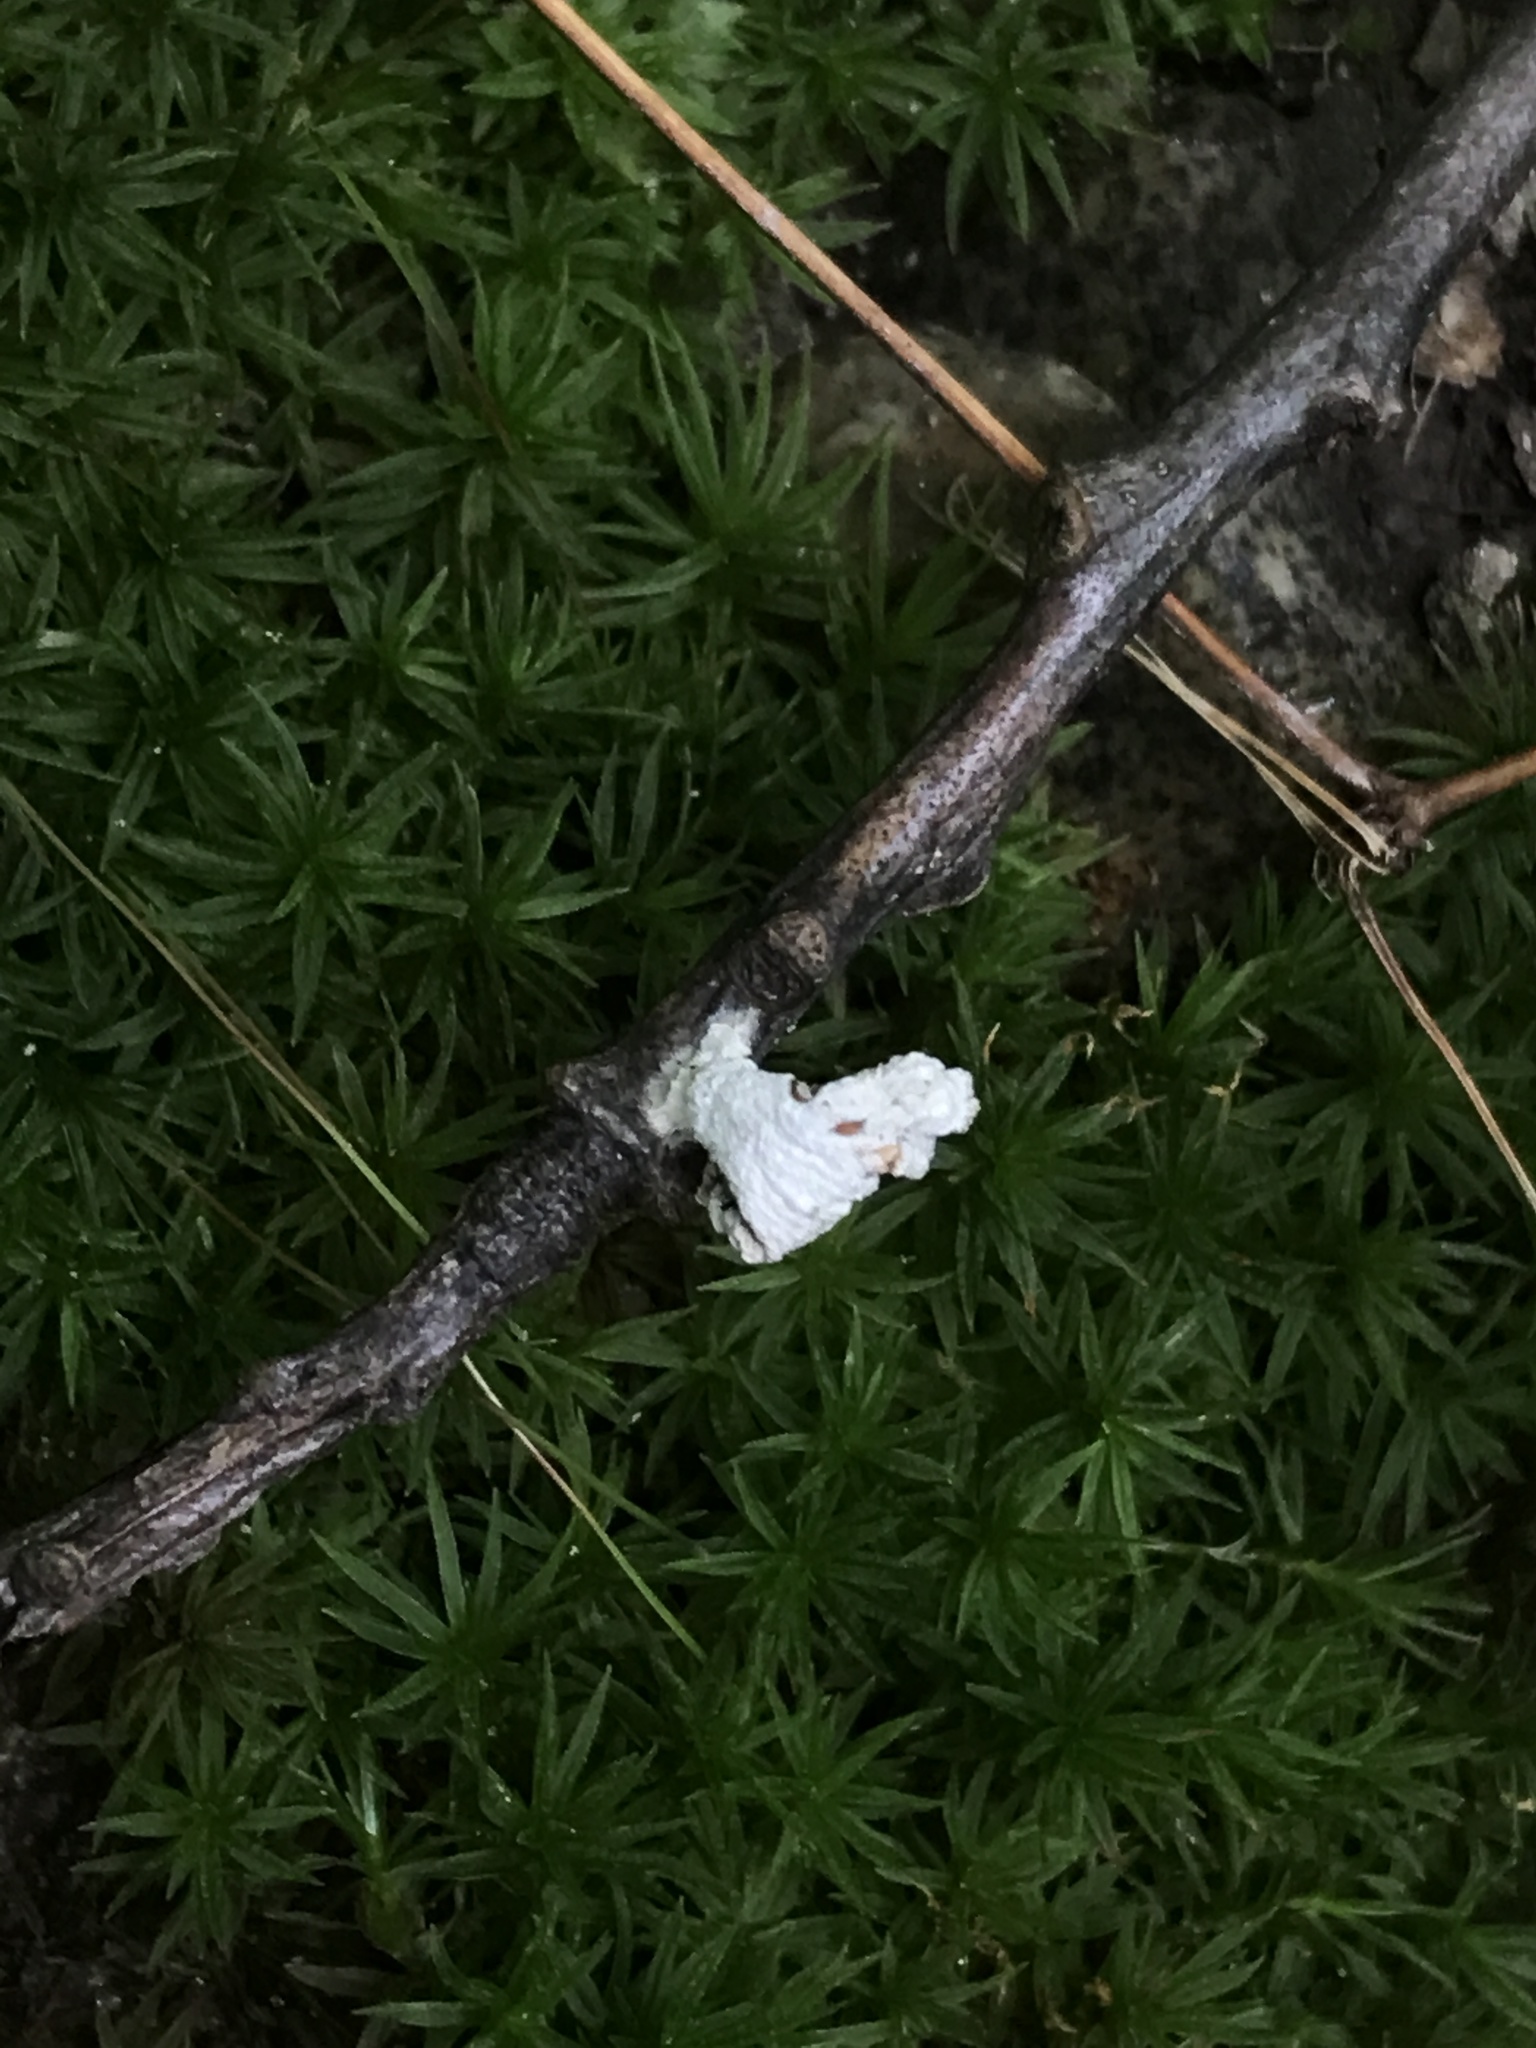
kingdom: Fungi
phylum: Basidiomycota
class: Agaricomycetes
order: Agaricales
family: Schizophyllaceae
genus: Schizophyllum
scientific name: Schizophyllum commune
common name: Common porecrust
